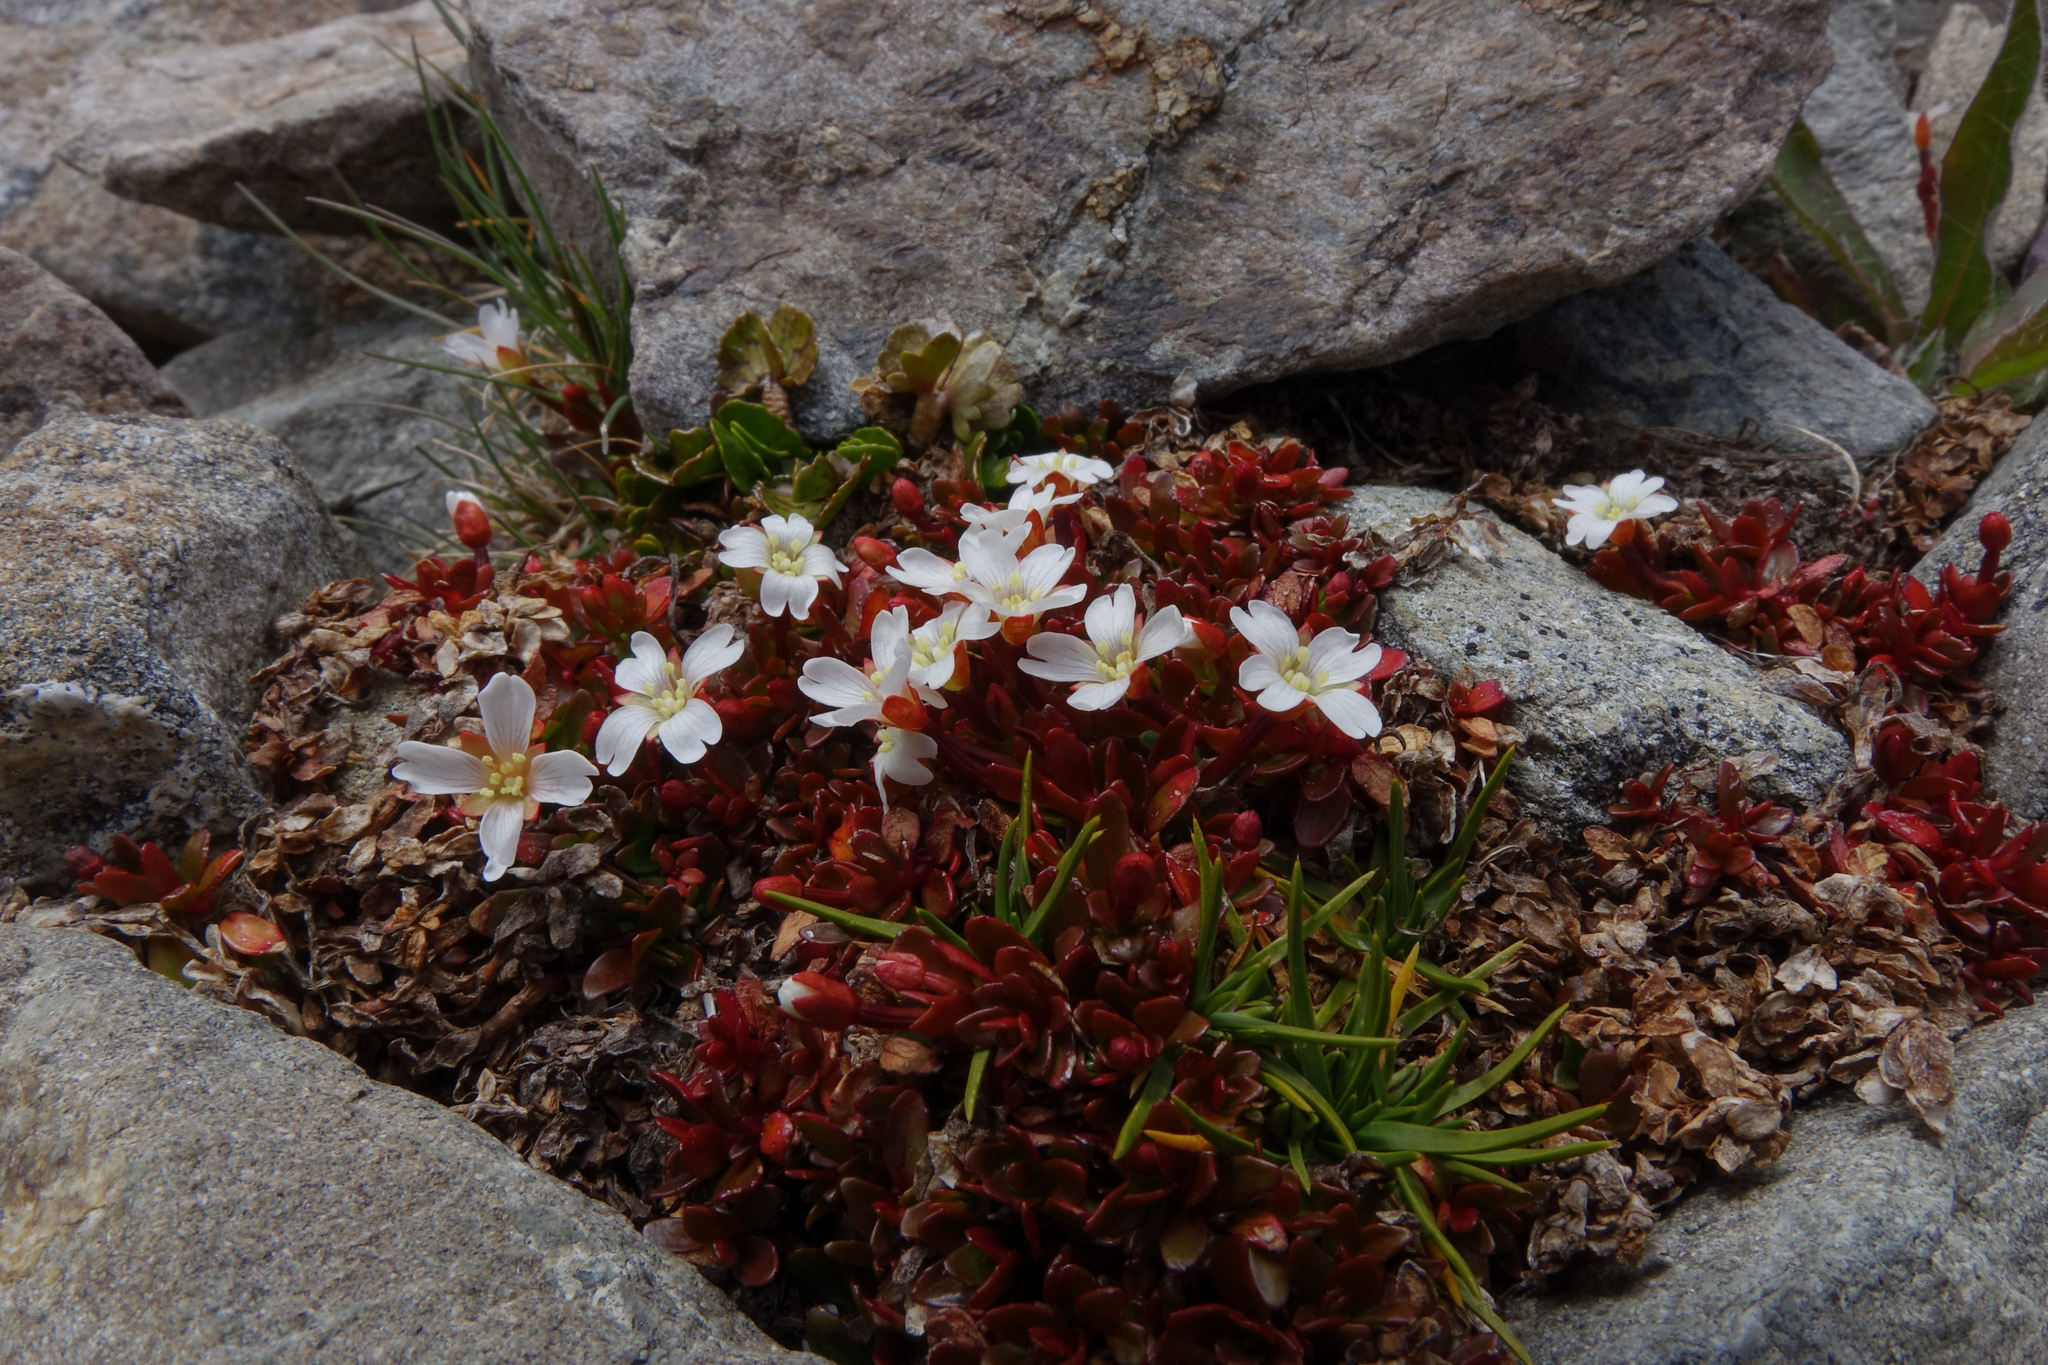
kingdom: Plantae
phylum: Tracheophyta
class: Magnoliopsida
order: Myrtales
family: Onagraceae
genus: Epilobium
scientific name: Epilobium tasmanicum
